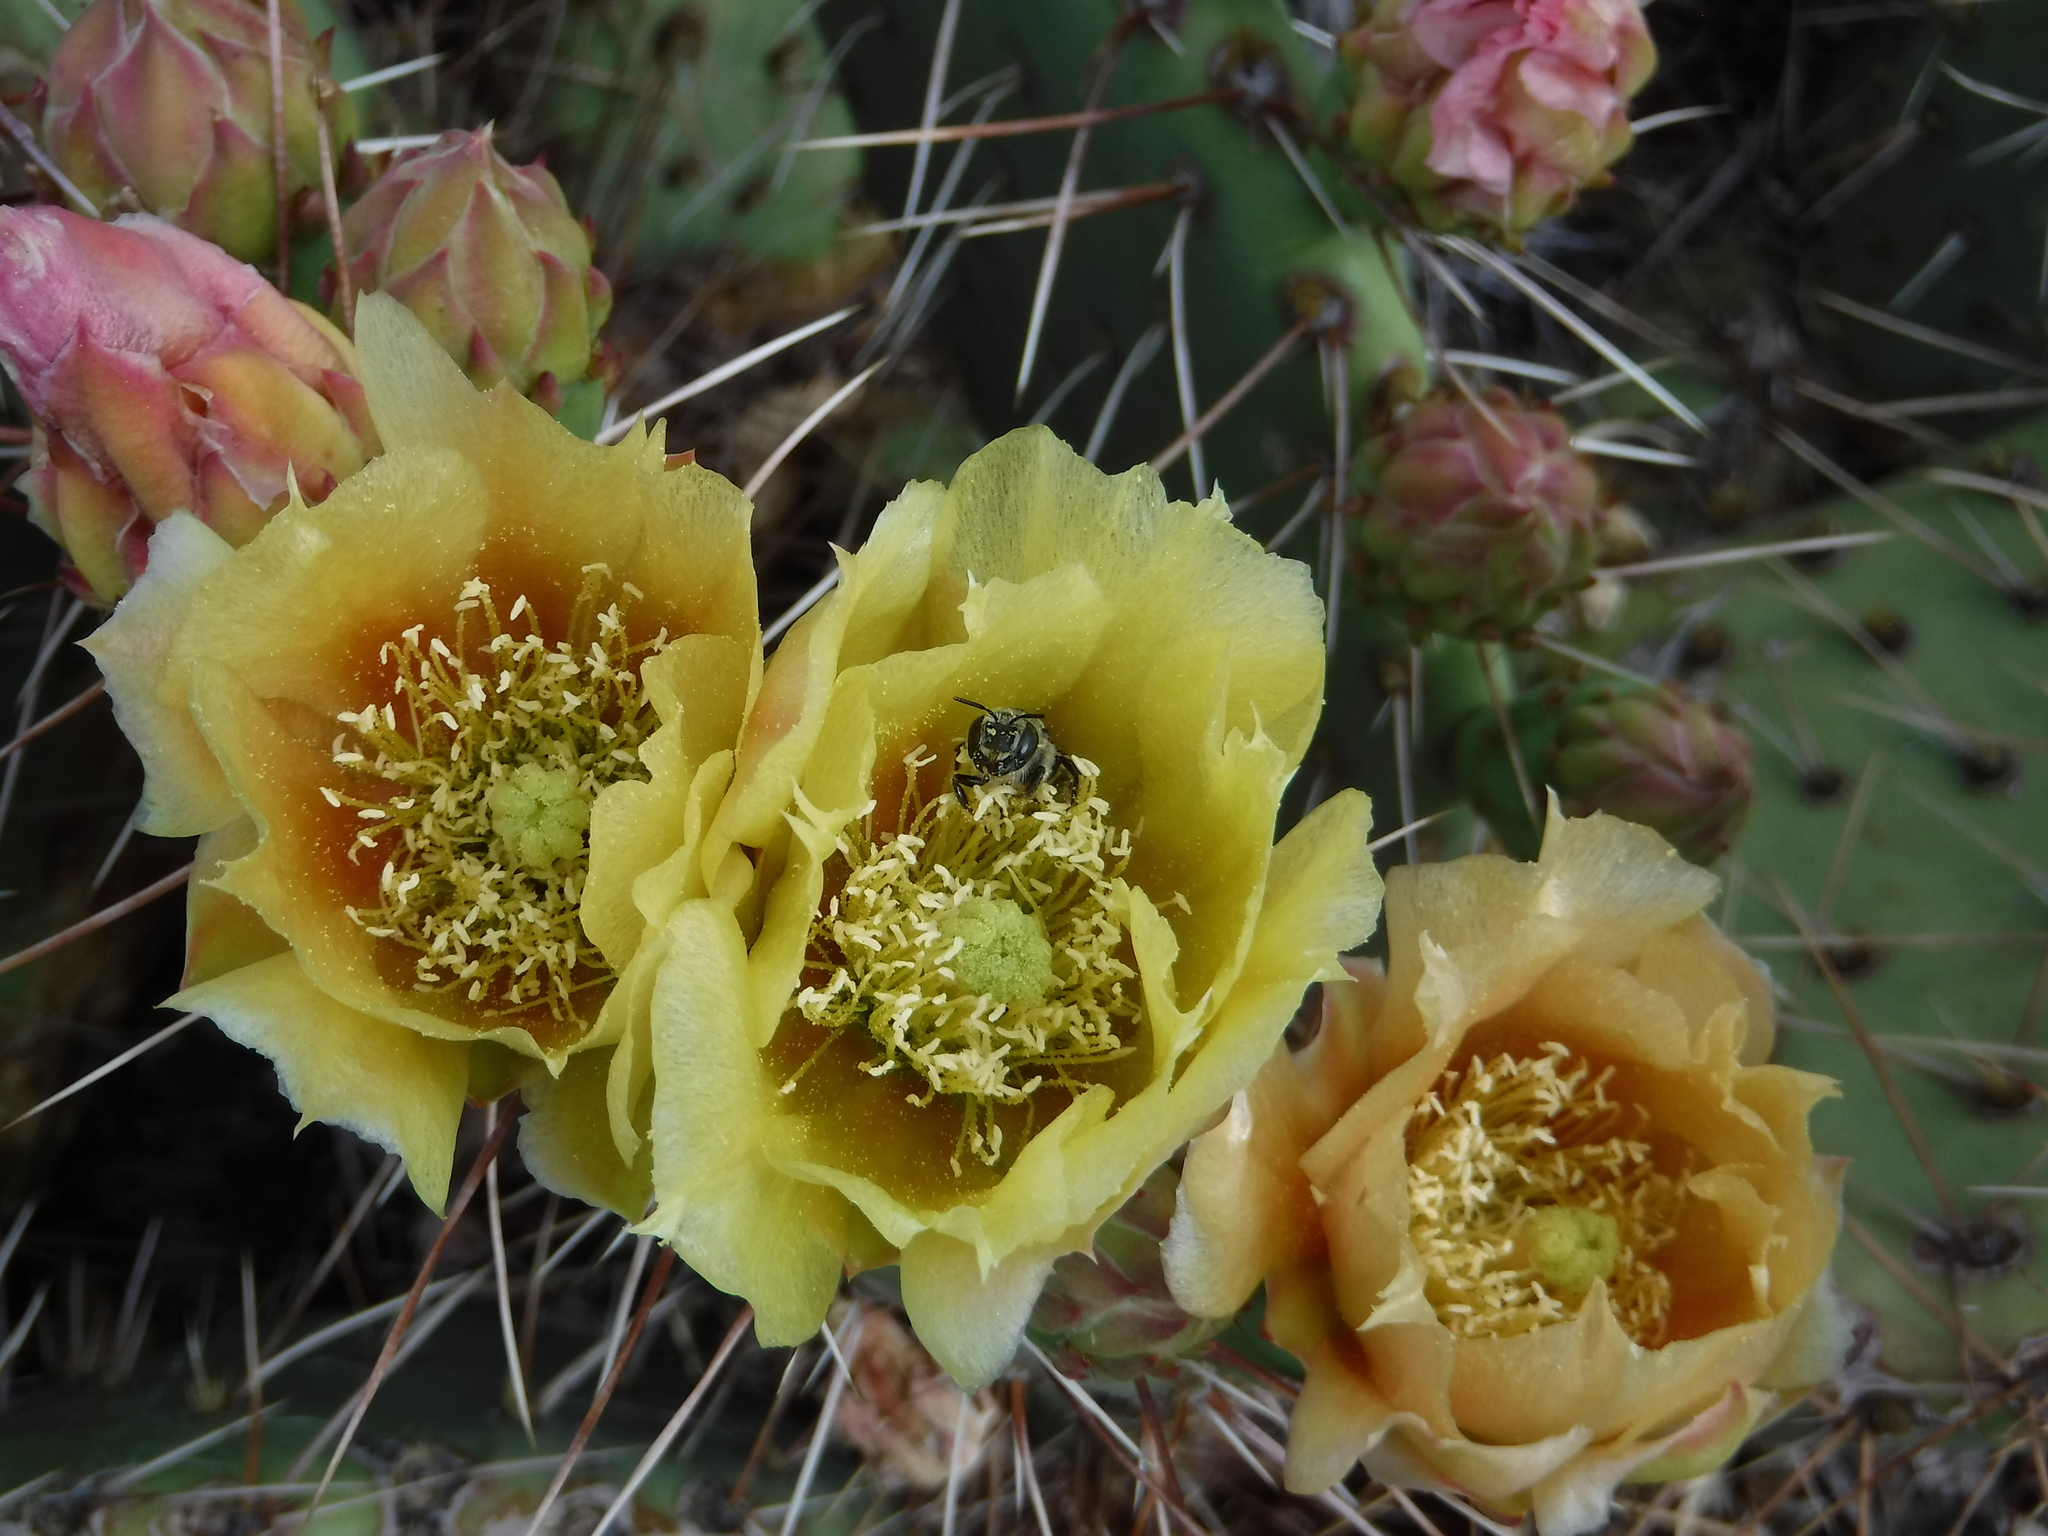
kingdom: Animalia
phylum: Arthropoda
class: Insecta
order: Hymenoptera
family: Megachilidae
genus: Lithurgopsis
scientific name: Lithurgopsis apicalis
